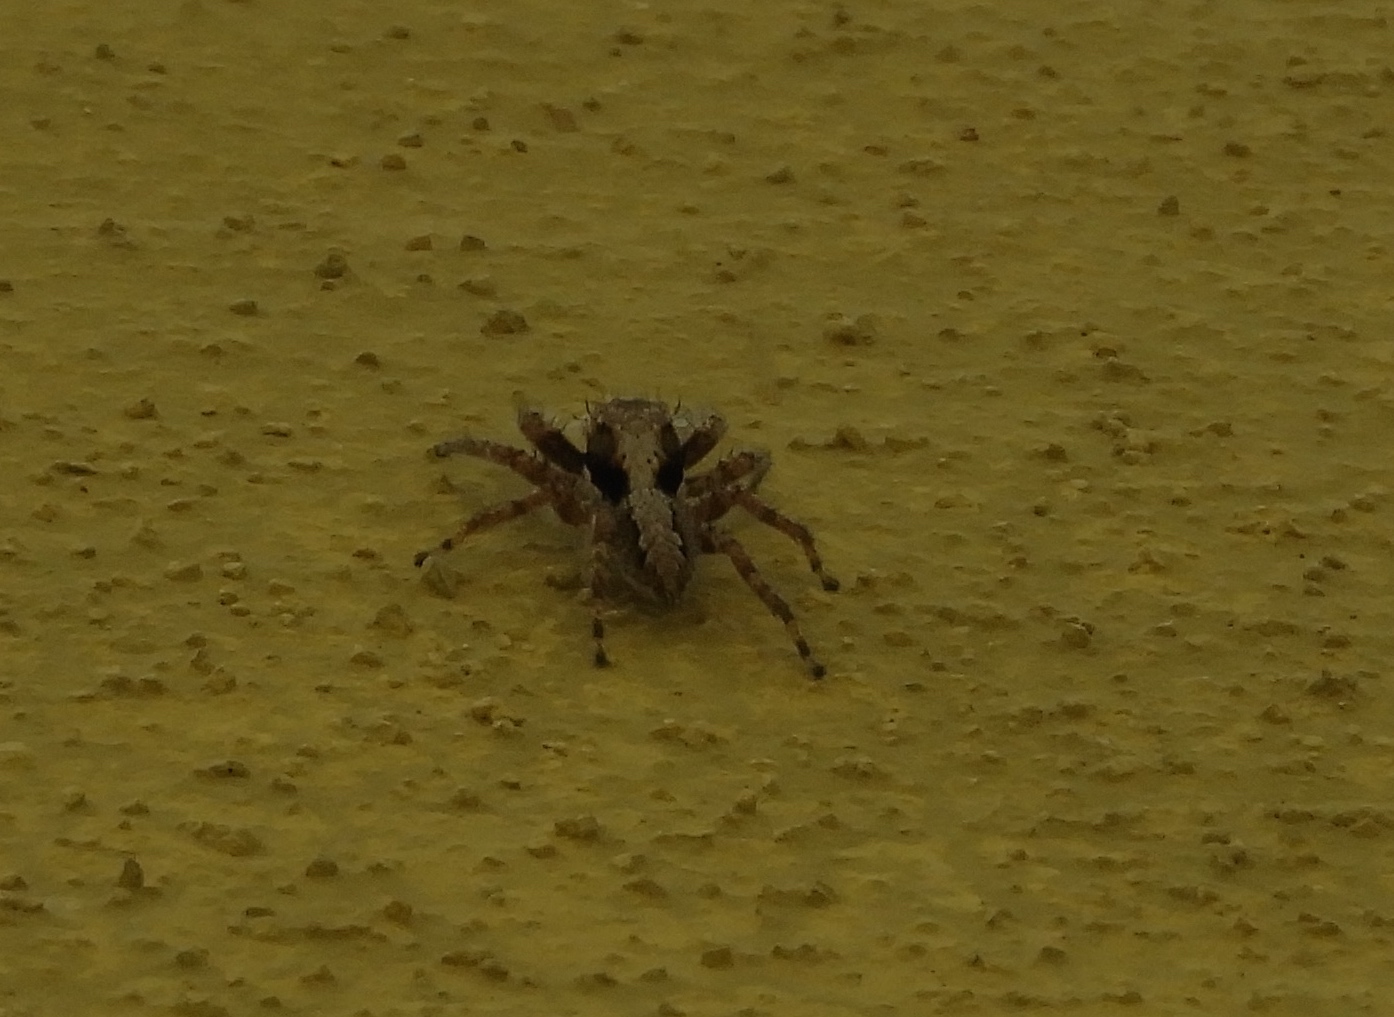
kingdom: Animalia
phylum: Arthropoda
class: Arachnida
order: Araneae
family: Salticidae
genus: Balmaceda
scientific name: Balmaceda
